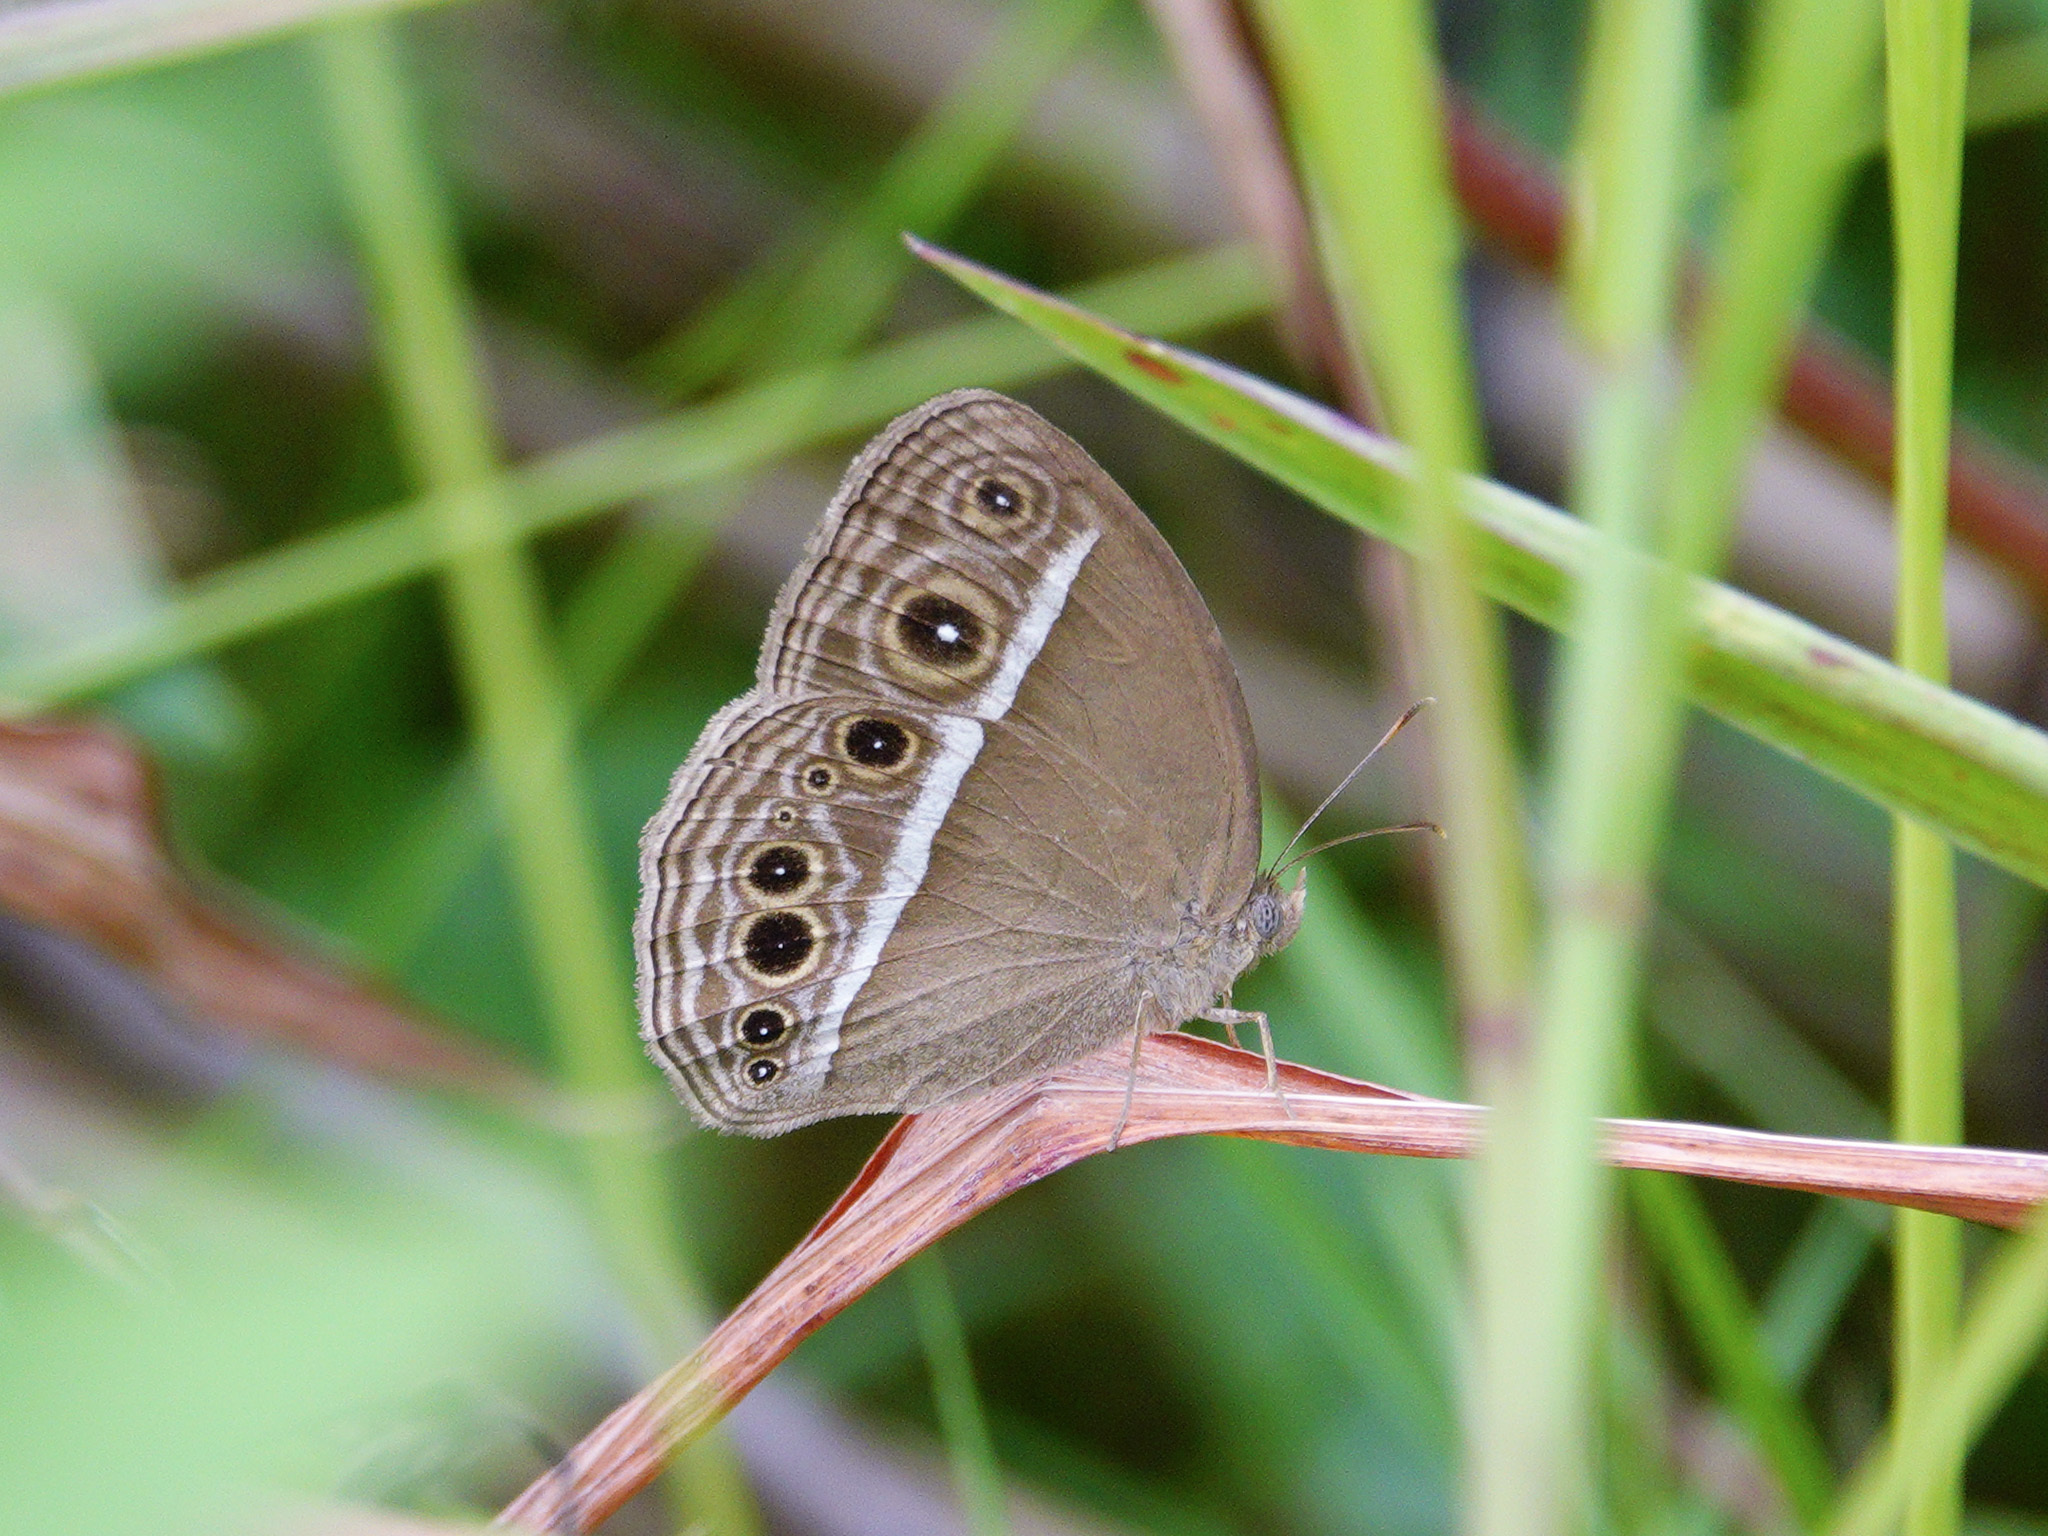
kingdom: Animalia
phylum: Arthropoda
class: Insecta
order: Lepidoptera
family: Nymphalidae
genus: Mycalesis
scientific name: Mycalesis mineus
